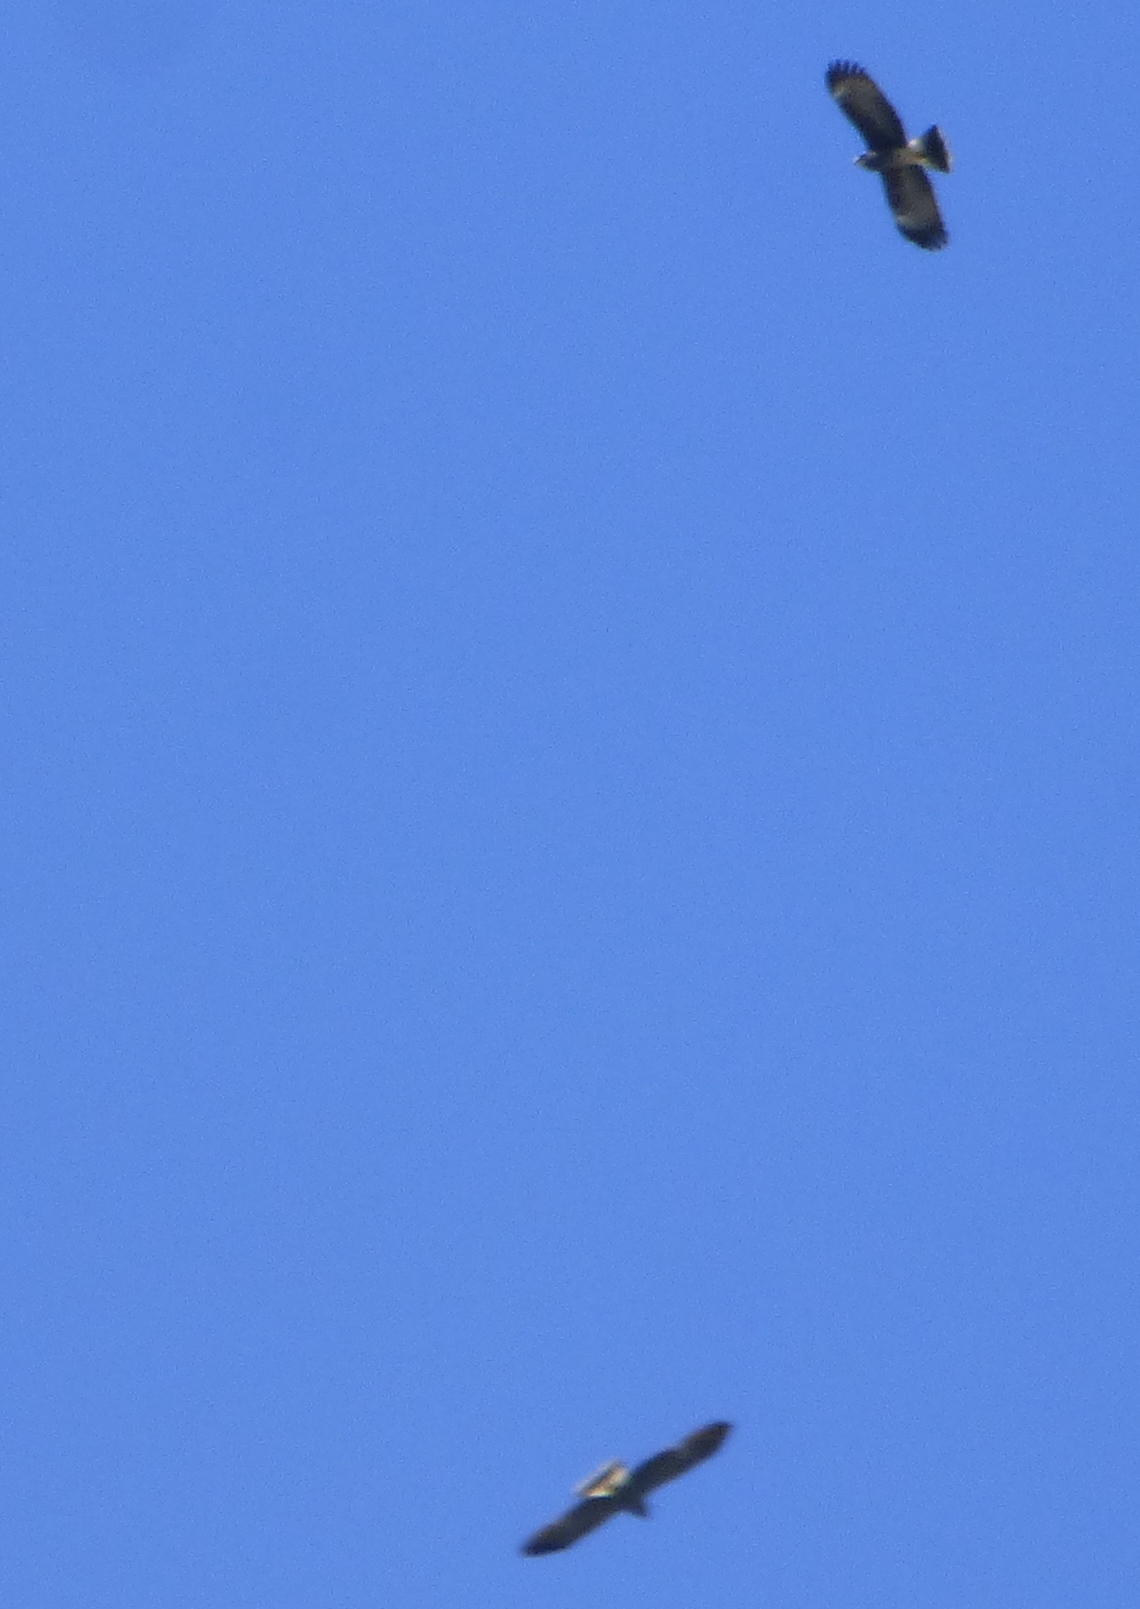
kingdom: Animalia
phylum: Chordata
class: Aves
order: Accipitriformes
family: Accipitridae
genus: Rostrhamus
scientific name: Rostrhamus sociabilis
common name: Snail kite
